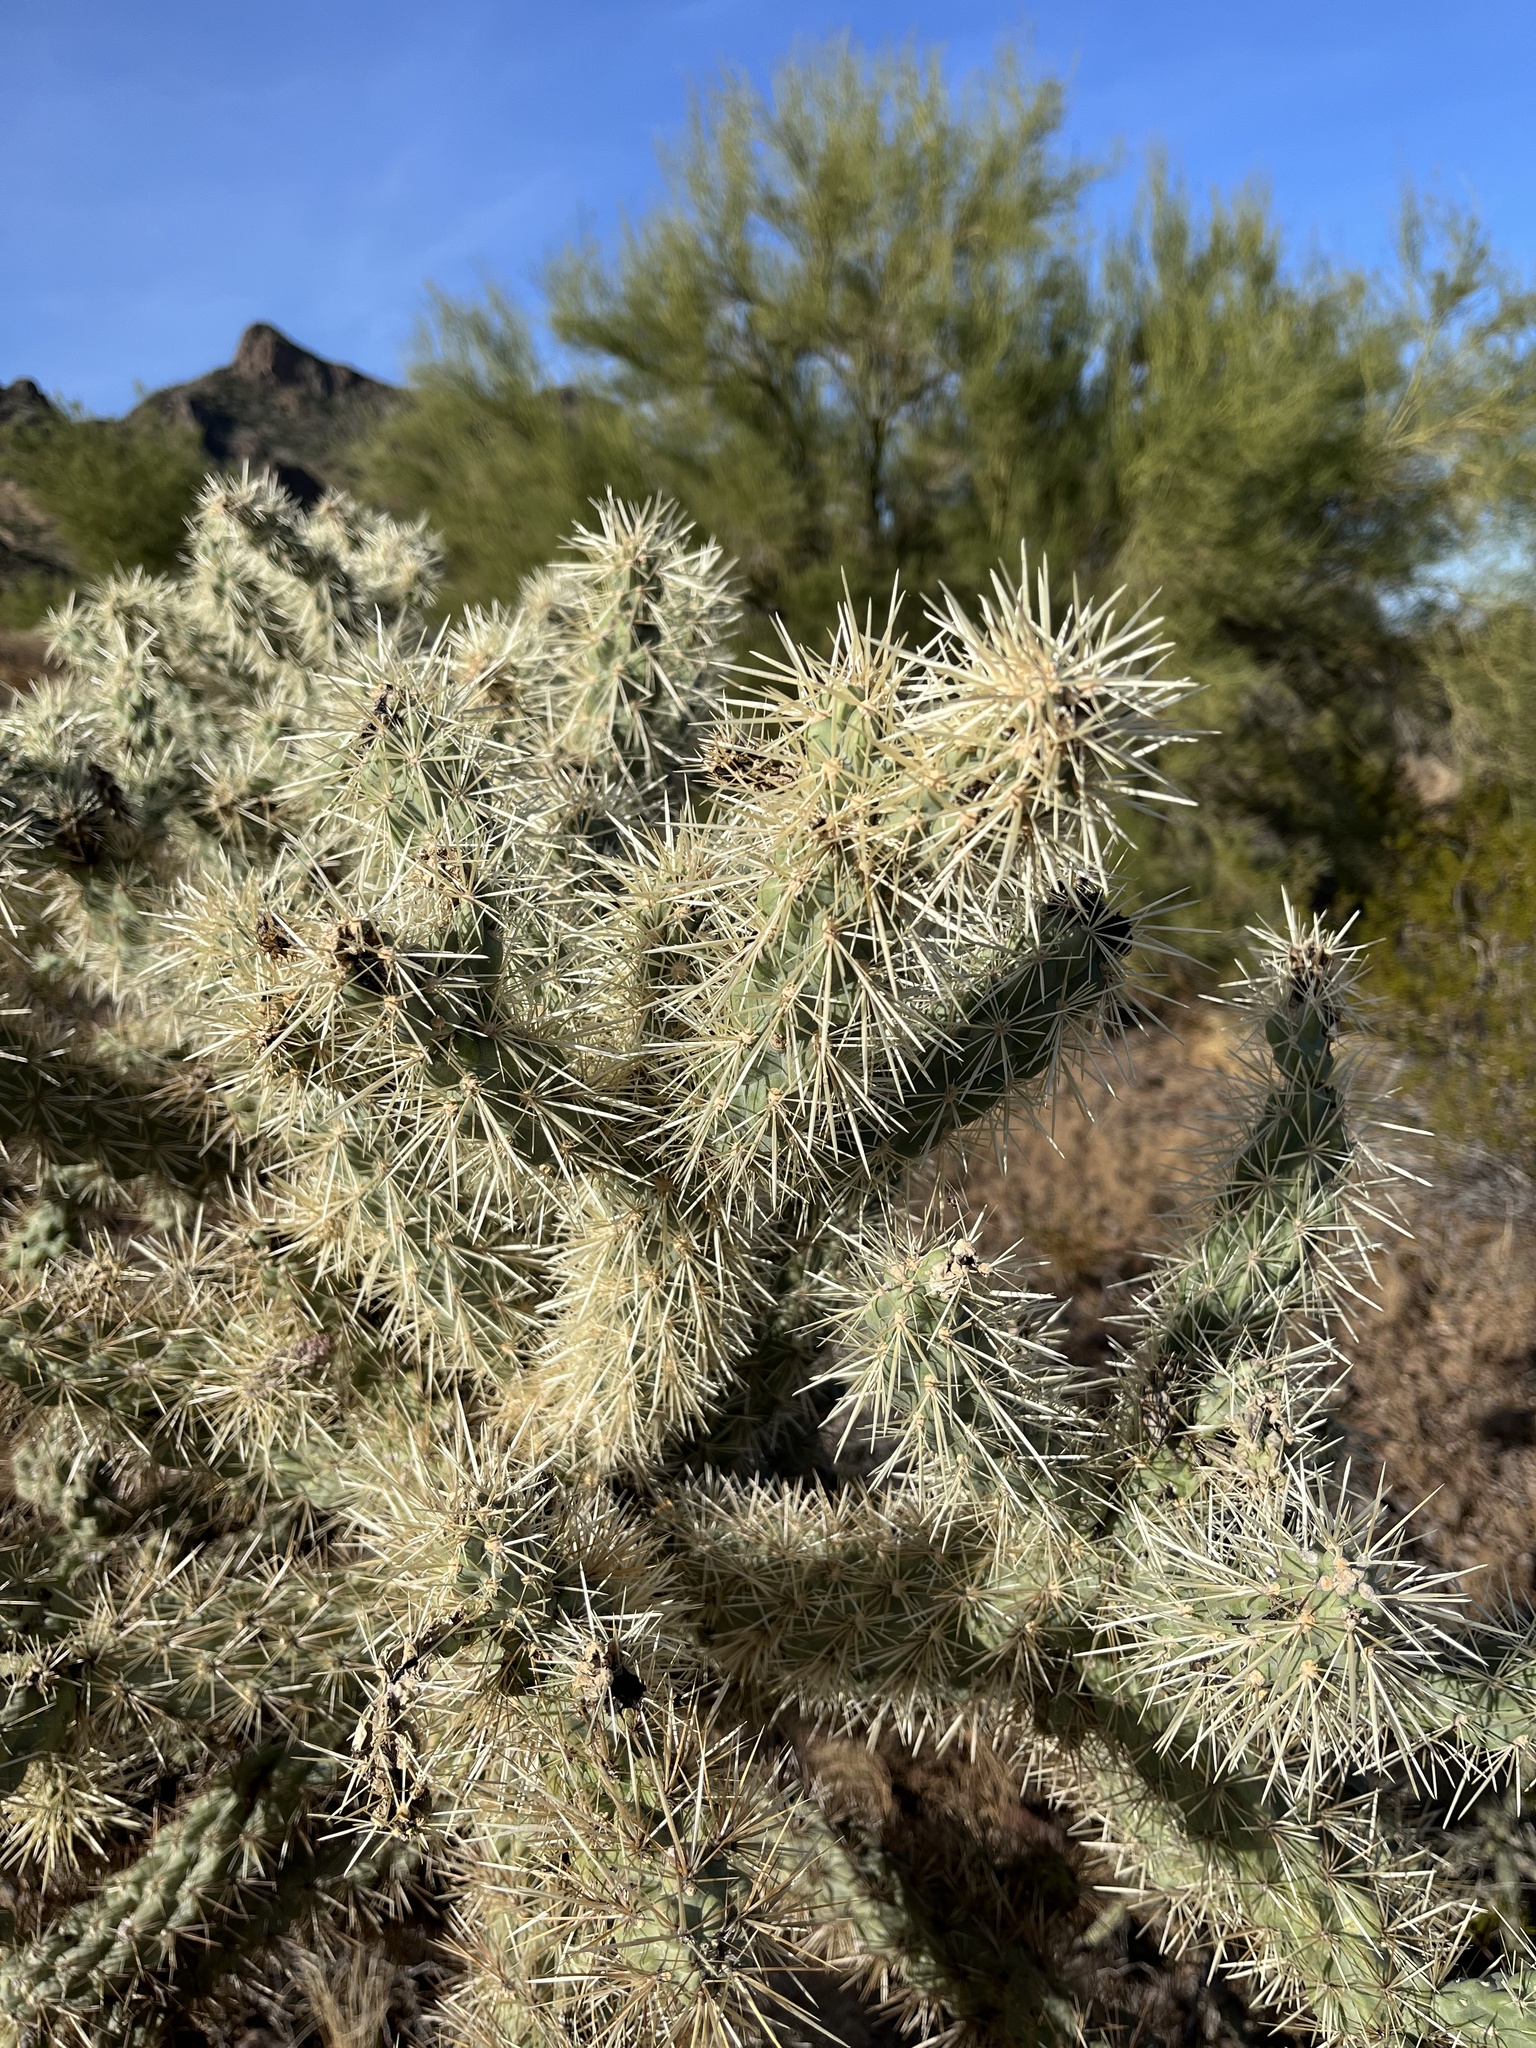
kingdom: Plantae
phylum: Tracheophyta
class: Magnoliopsida
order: Caryophyllales
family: Cactaceae
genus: Cylindropuntia
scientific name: Cylindropuntia fulgida
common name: Jumping cholla
